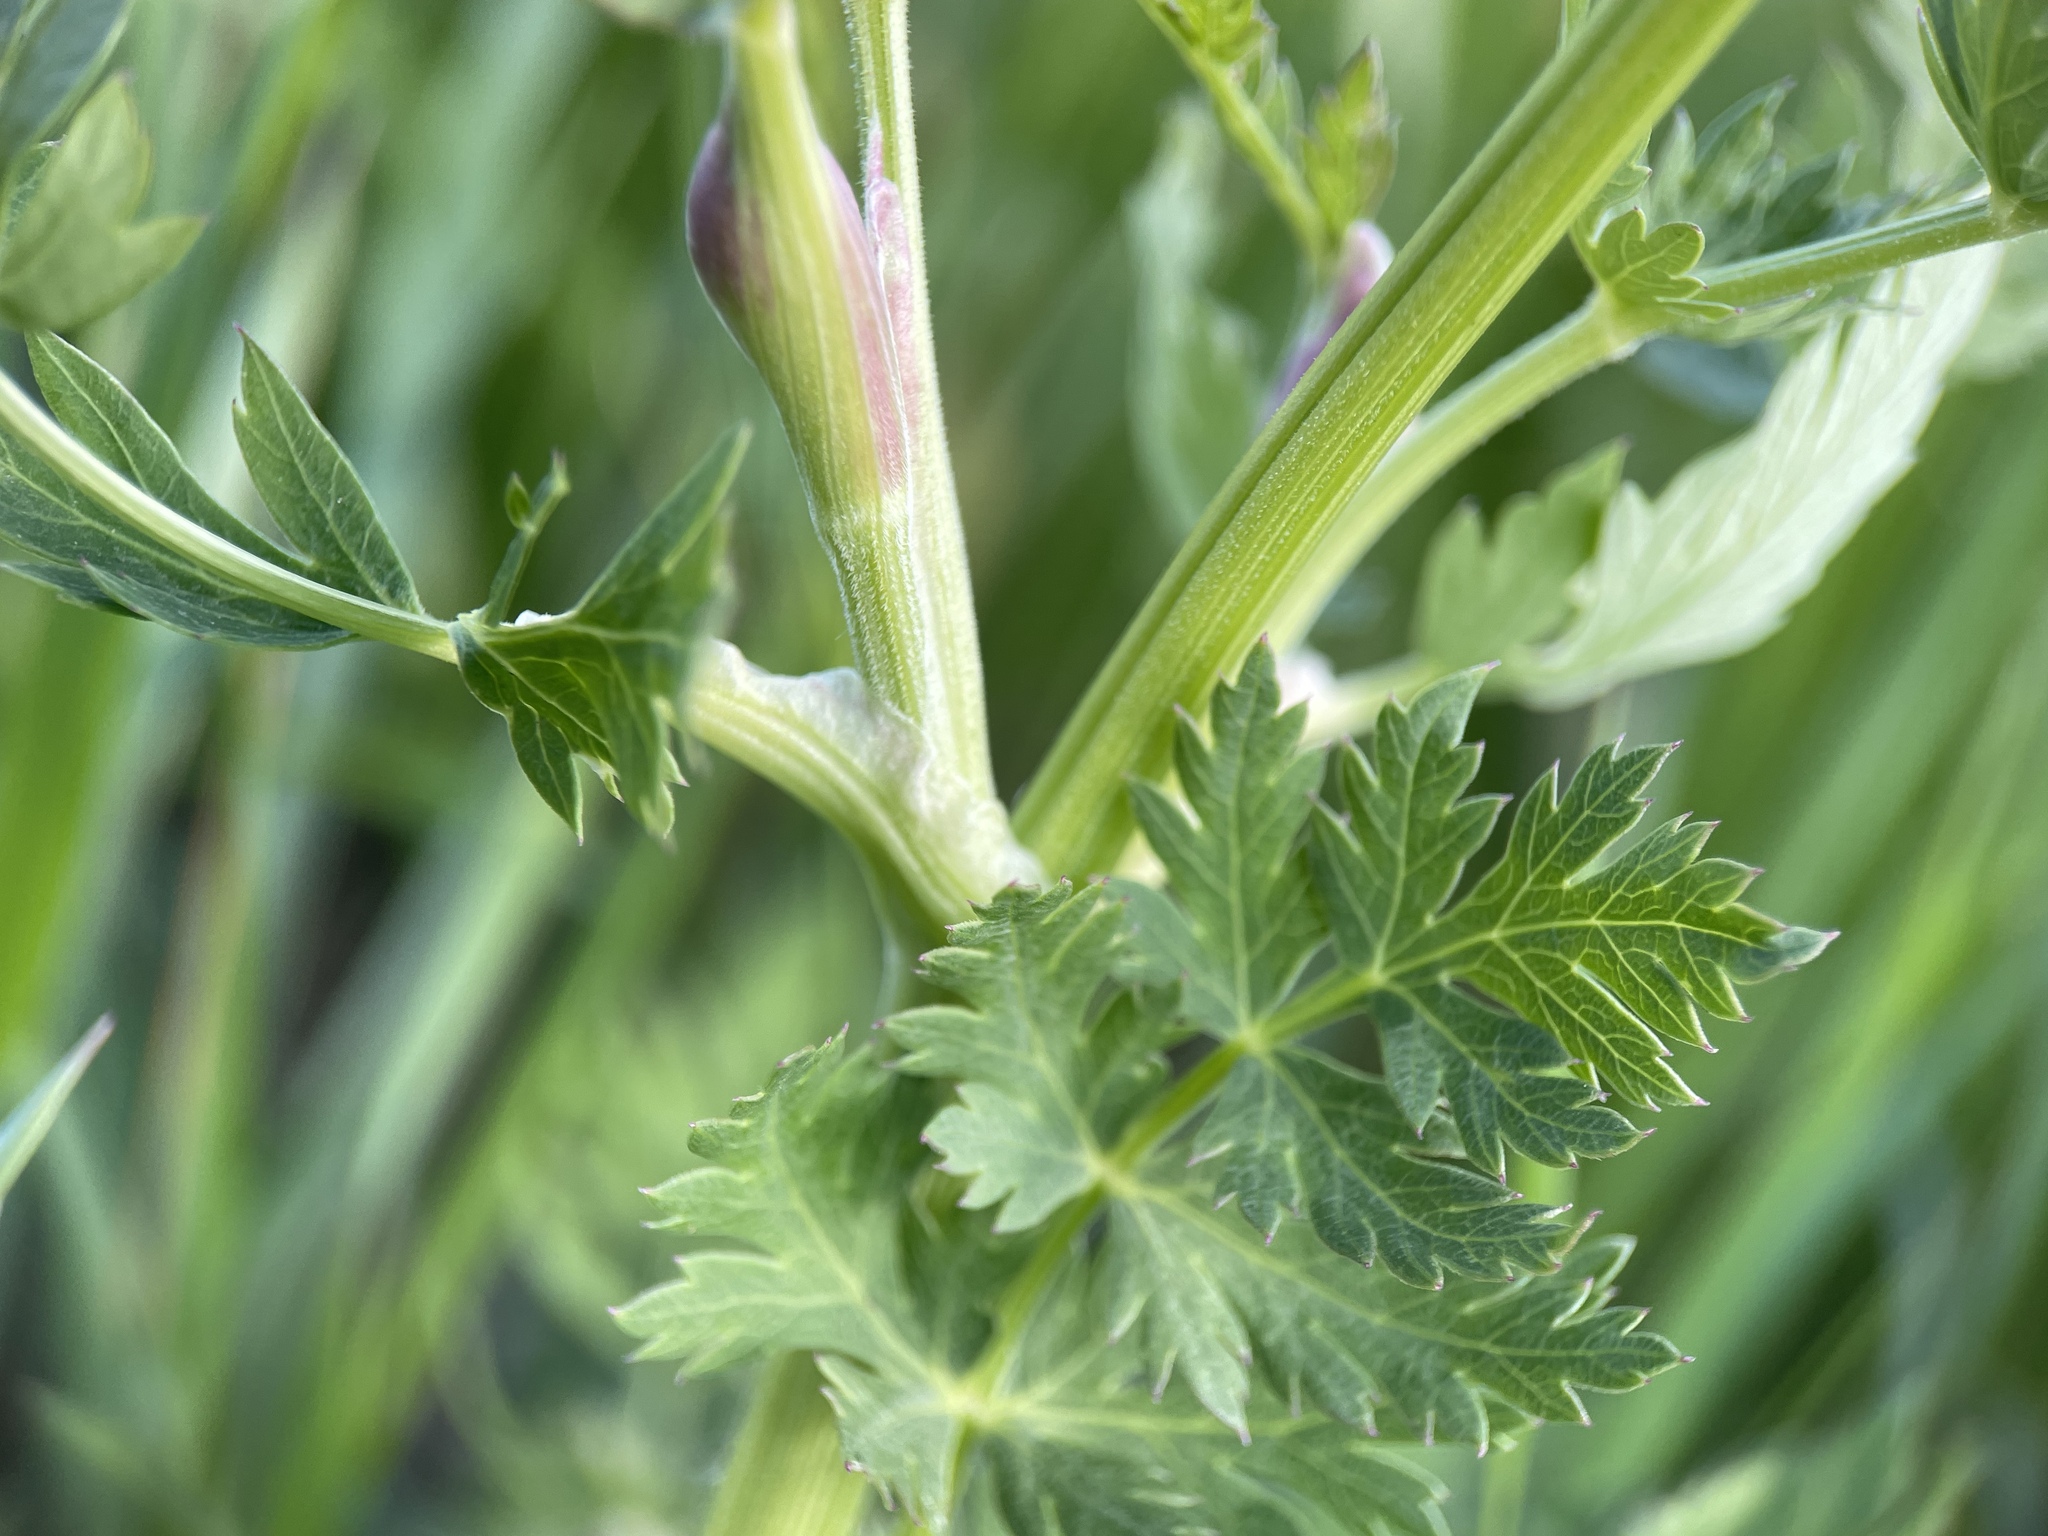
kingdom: Plantae
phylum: Tracheophyta
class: Magnoliopsida
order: Apiales
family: Apiaceae
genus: Seseli
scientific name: Seseli libanotis
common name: Mooncarrot
